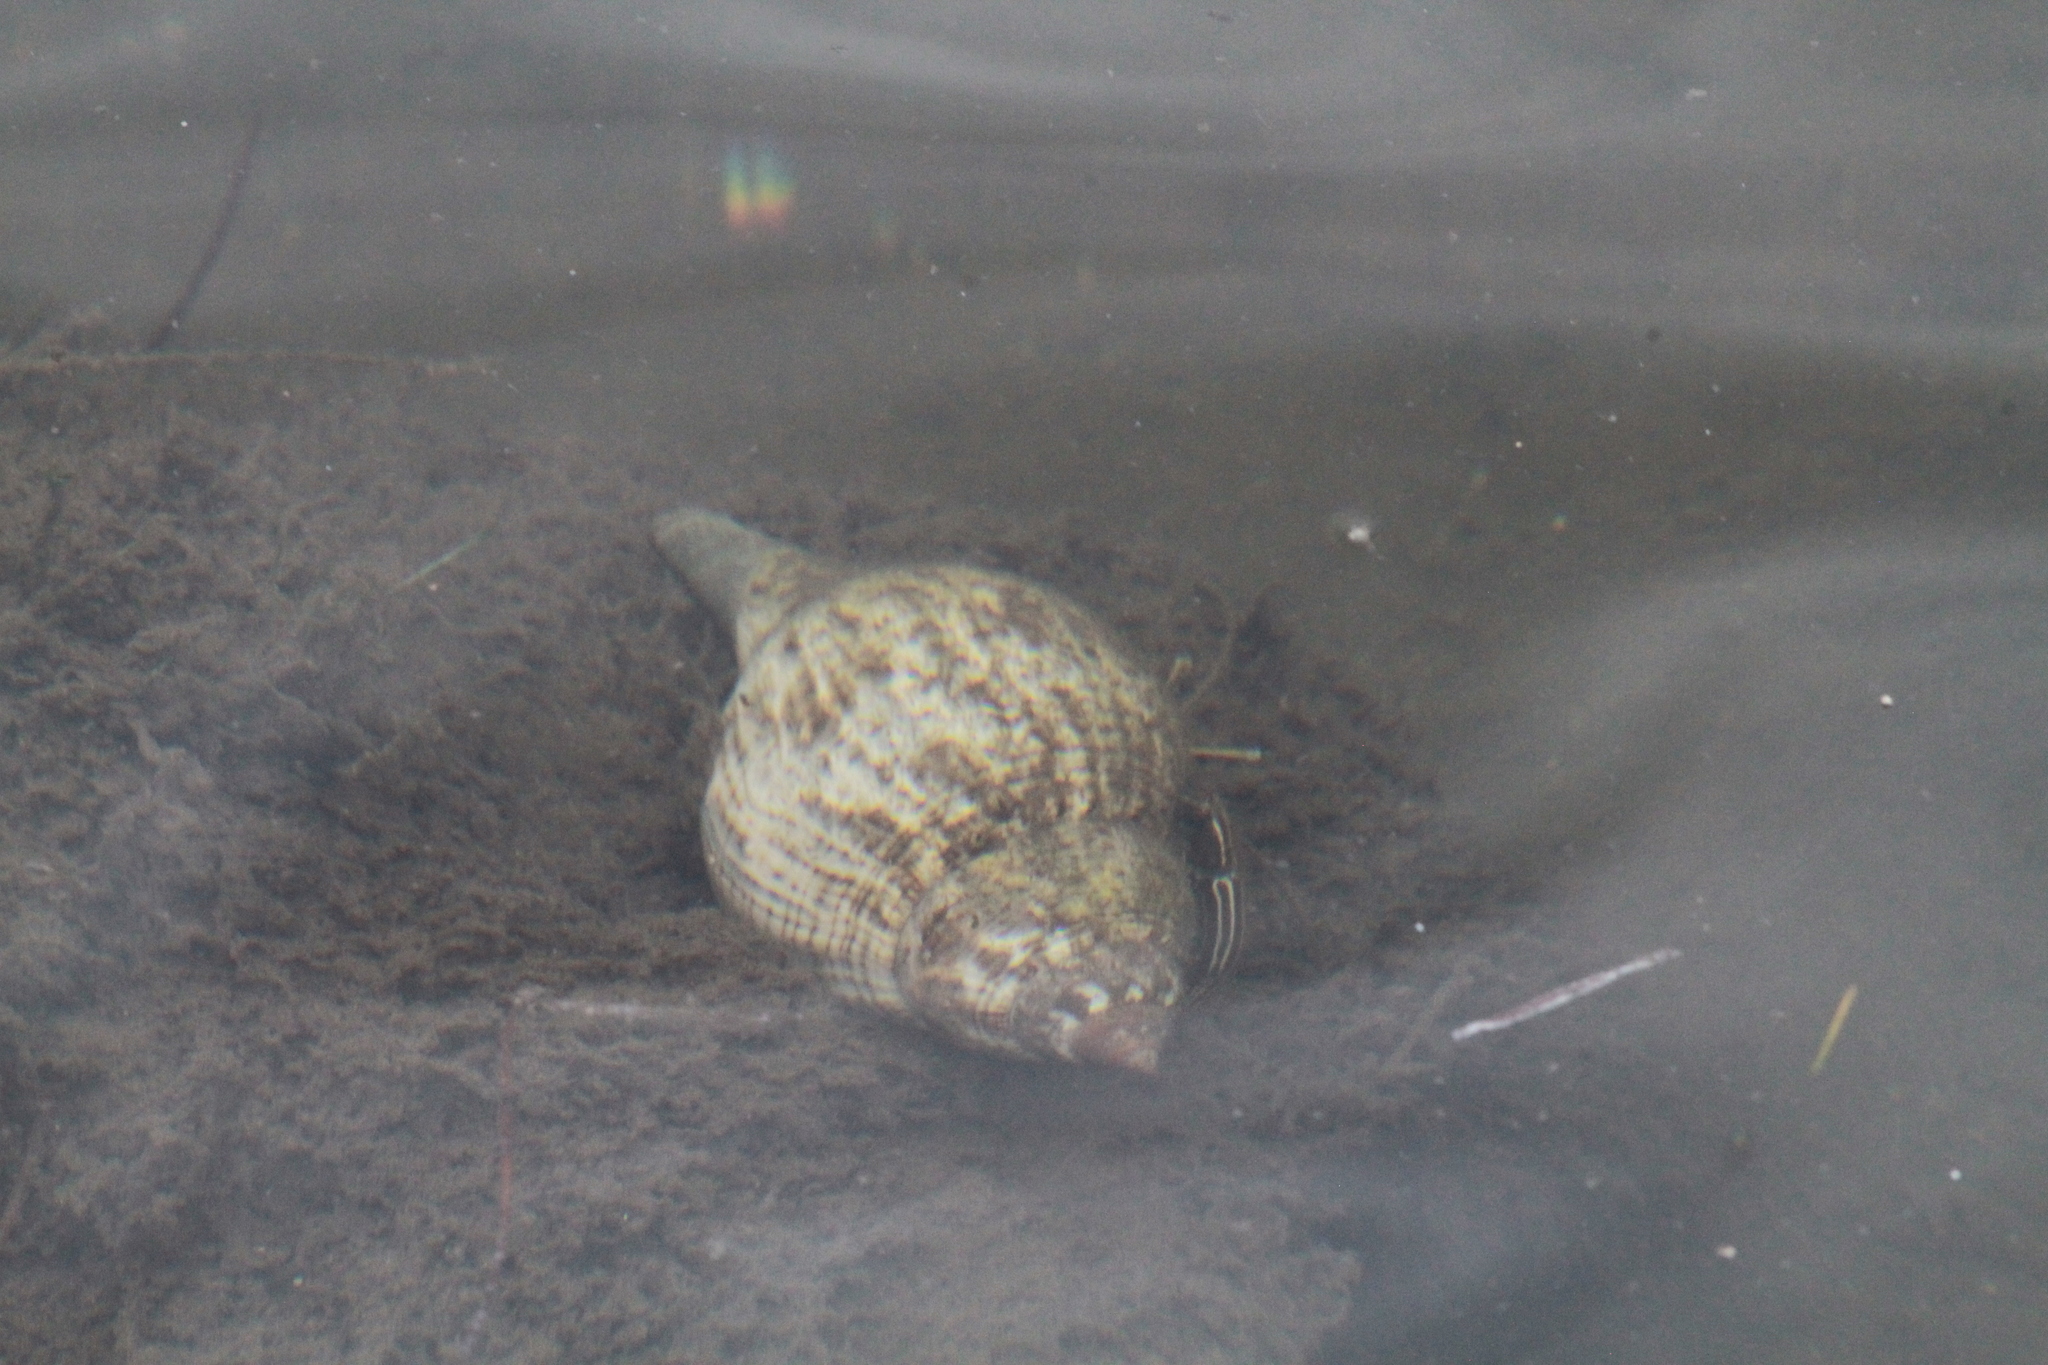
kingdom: Animalia
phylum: Arthropoda
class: Malacostraca
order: Decapoda
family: Diogenidae
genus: Clibanarius
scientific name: Clibanarius vittatus
